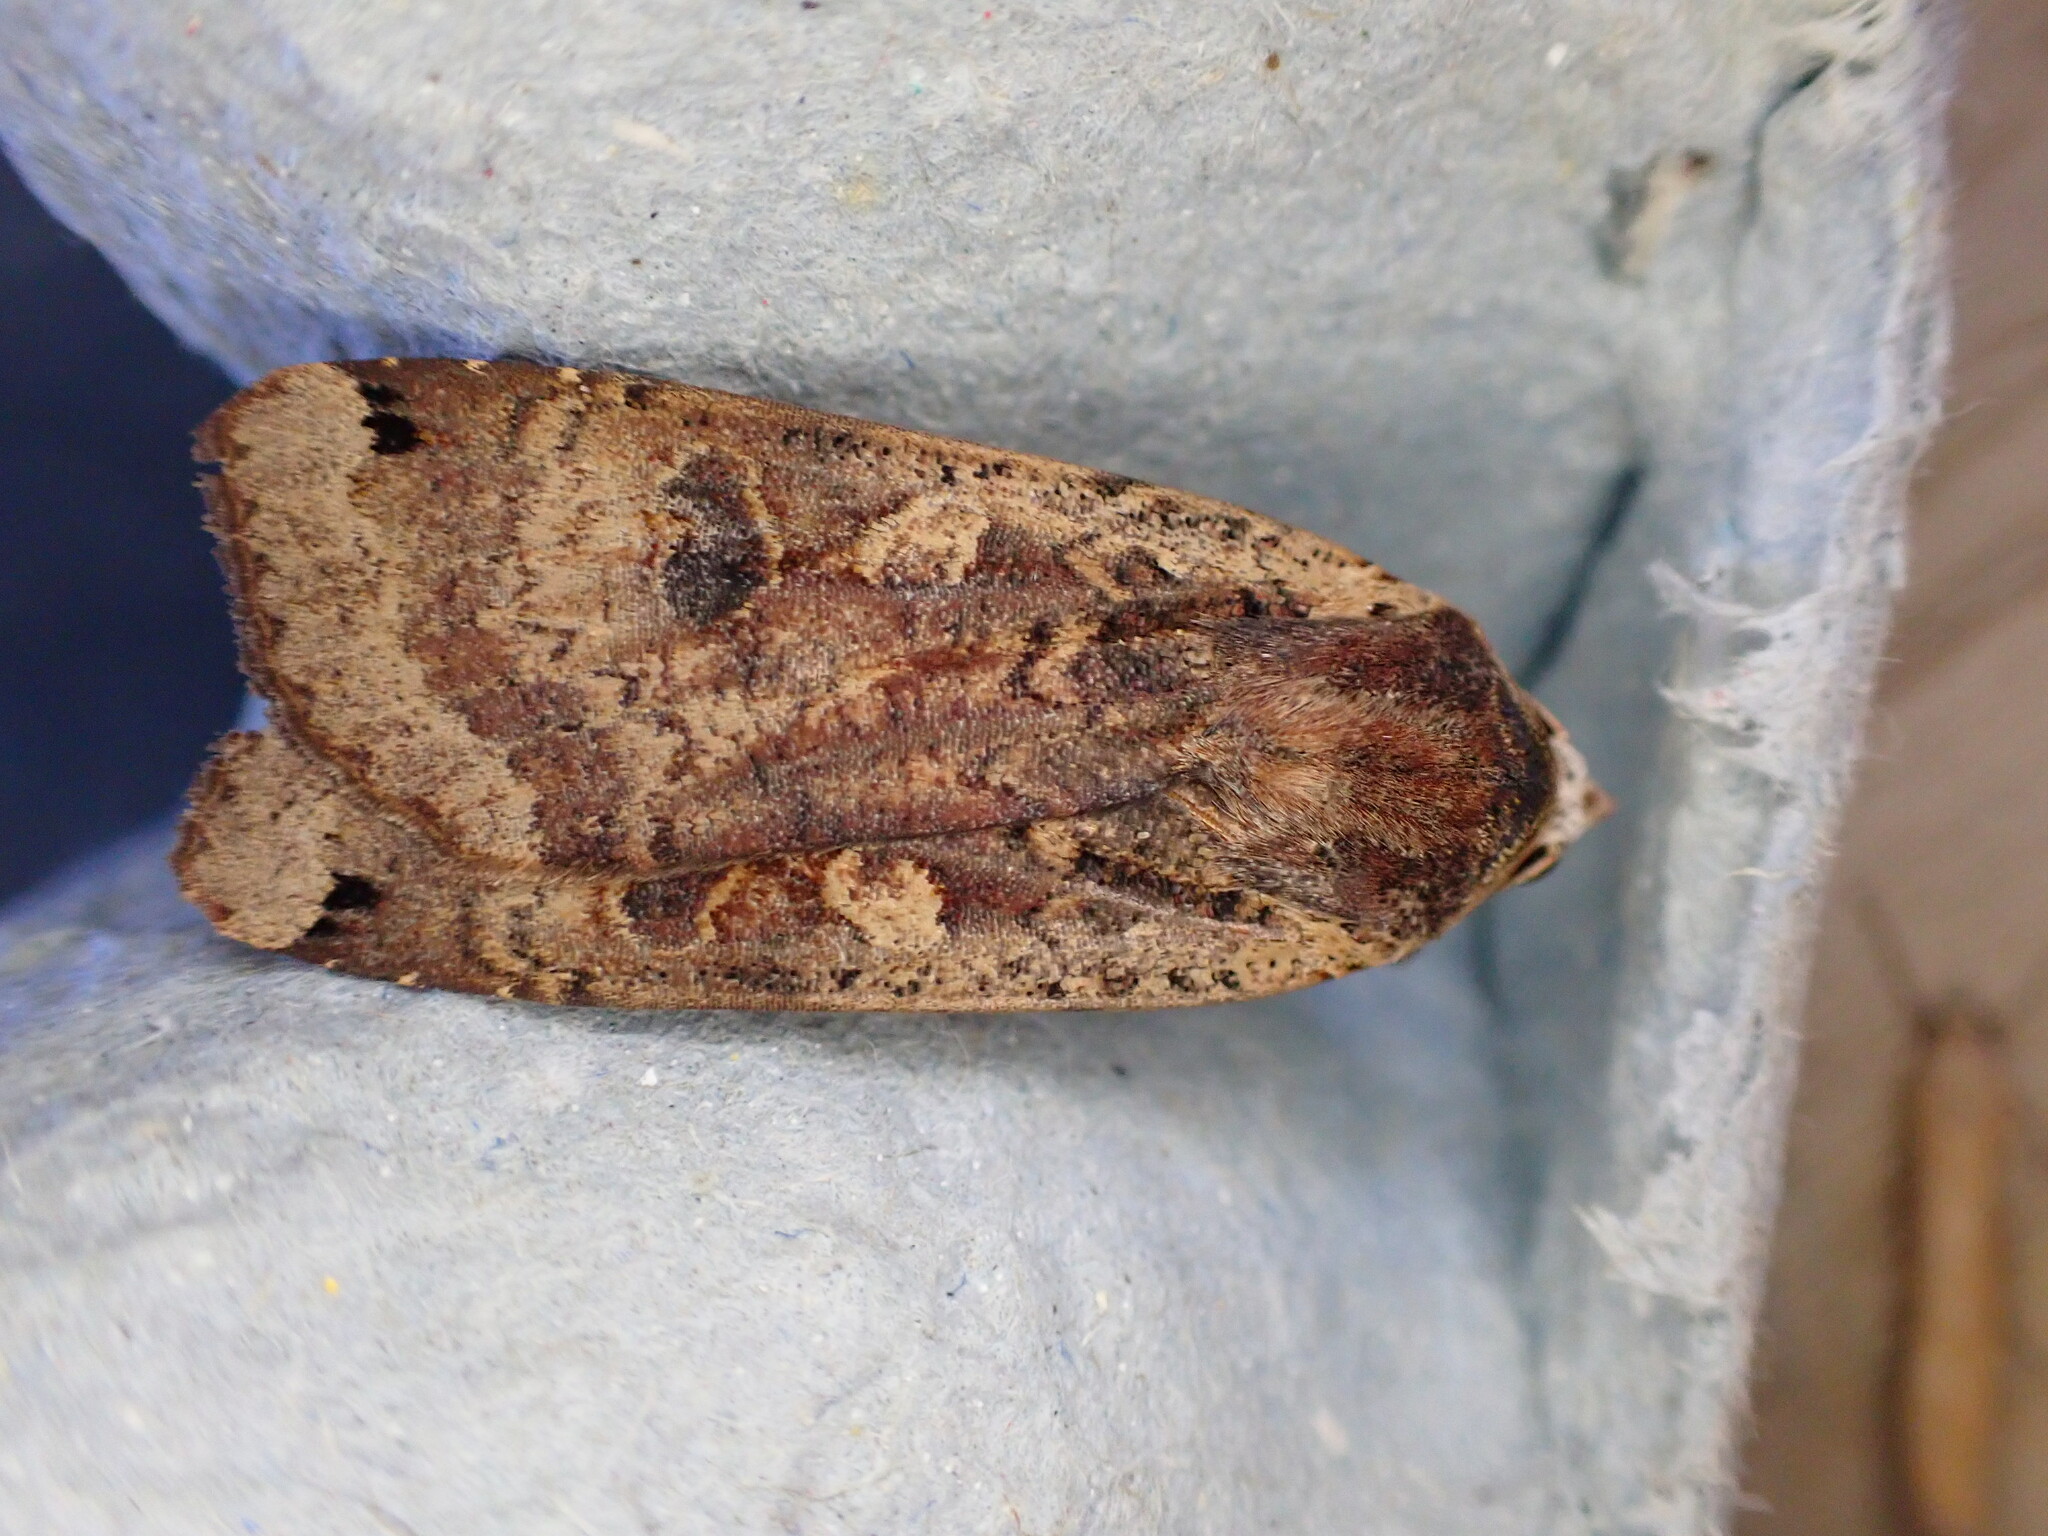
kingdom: Animalia
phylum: Arthropoda
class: Insecta
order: Lepidoptera
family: Noctuidae
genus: Noctua
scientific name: Noctua pronuba
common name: Large yellow underwing
